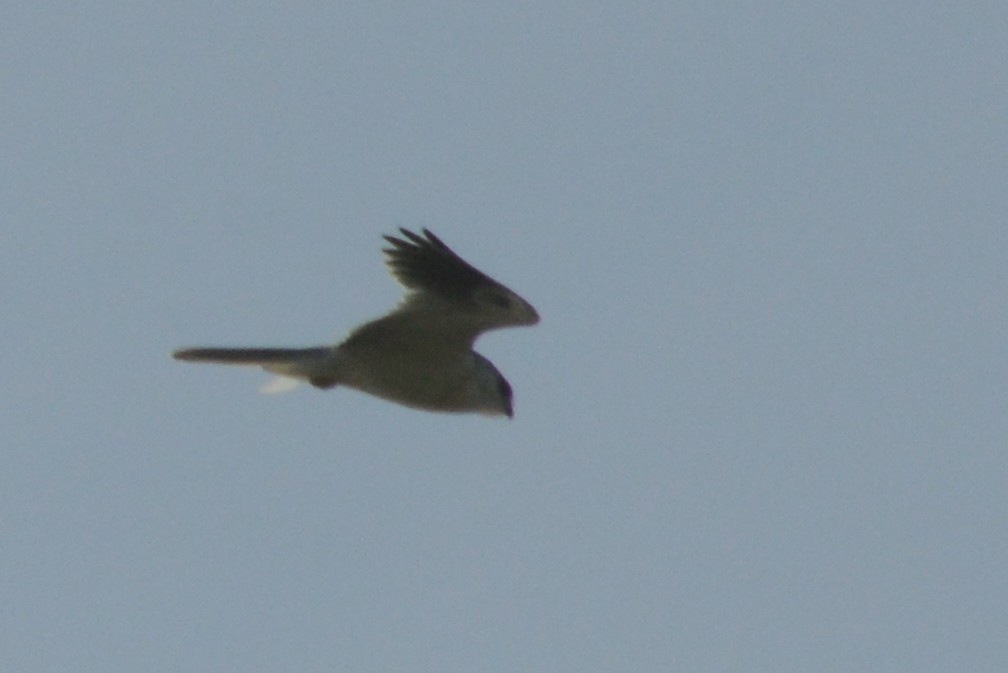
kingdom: Animalia
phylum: Chordata
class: Aves
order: Accipitriformes
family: Accipitridae
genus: Elanus
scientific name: Elanus leucurus
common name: White-tailed kite
